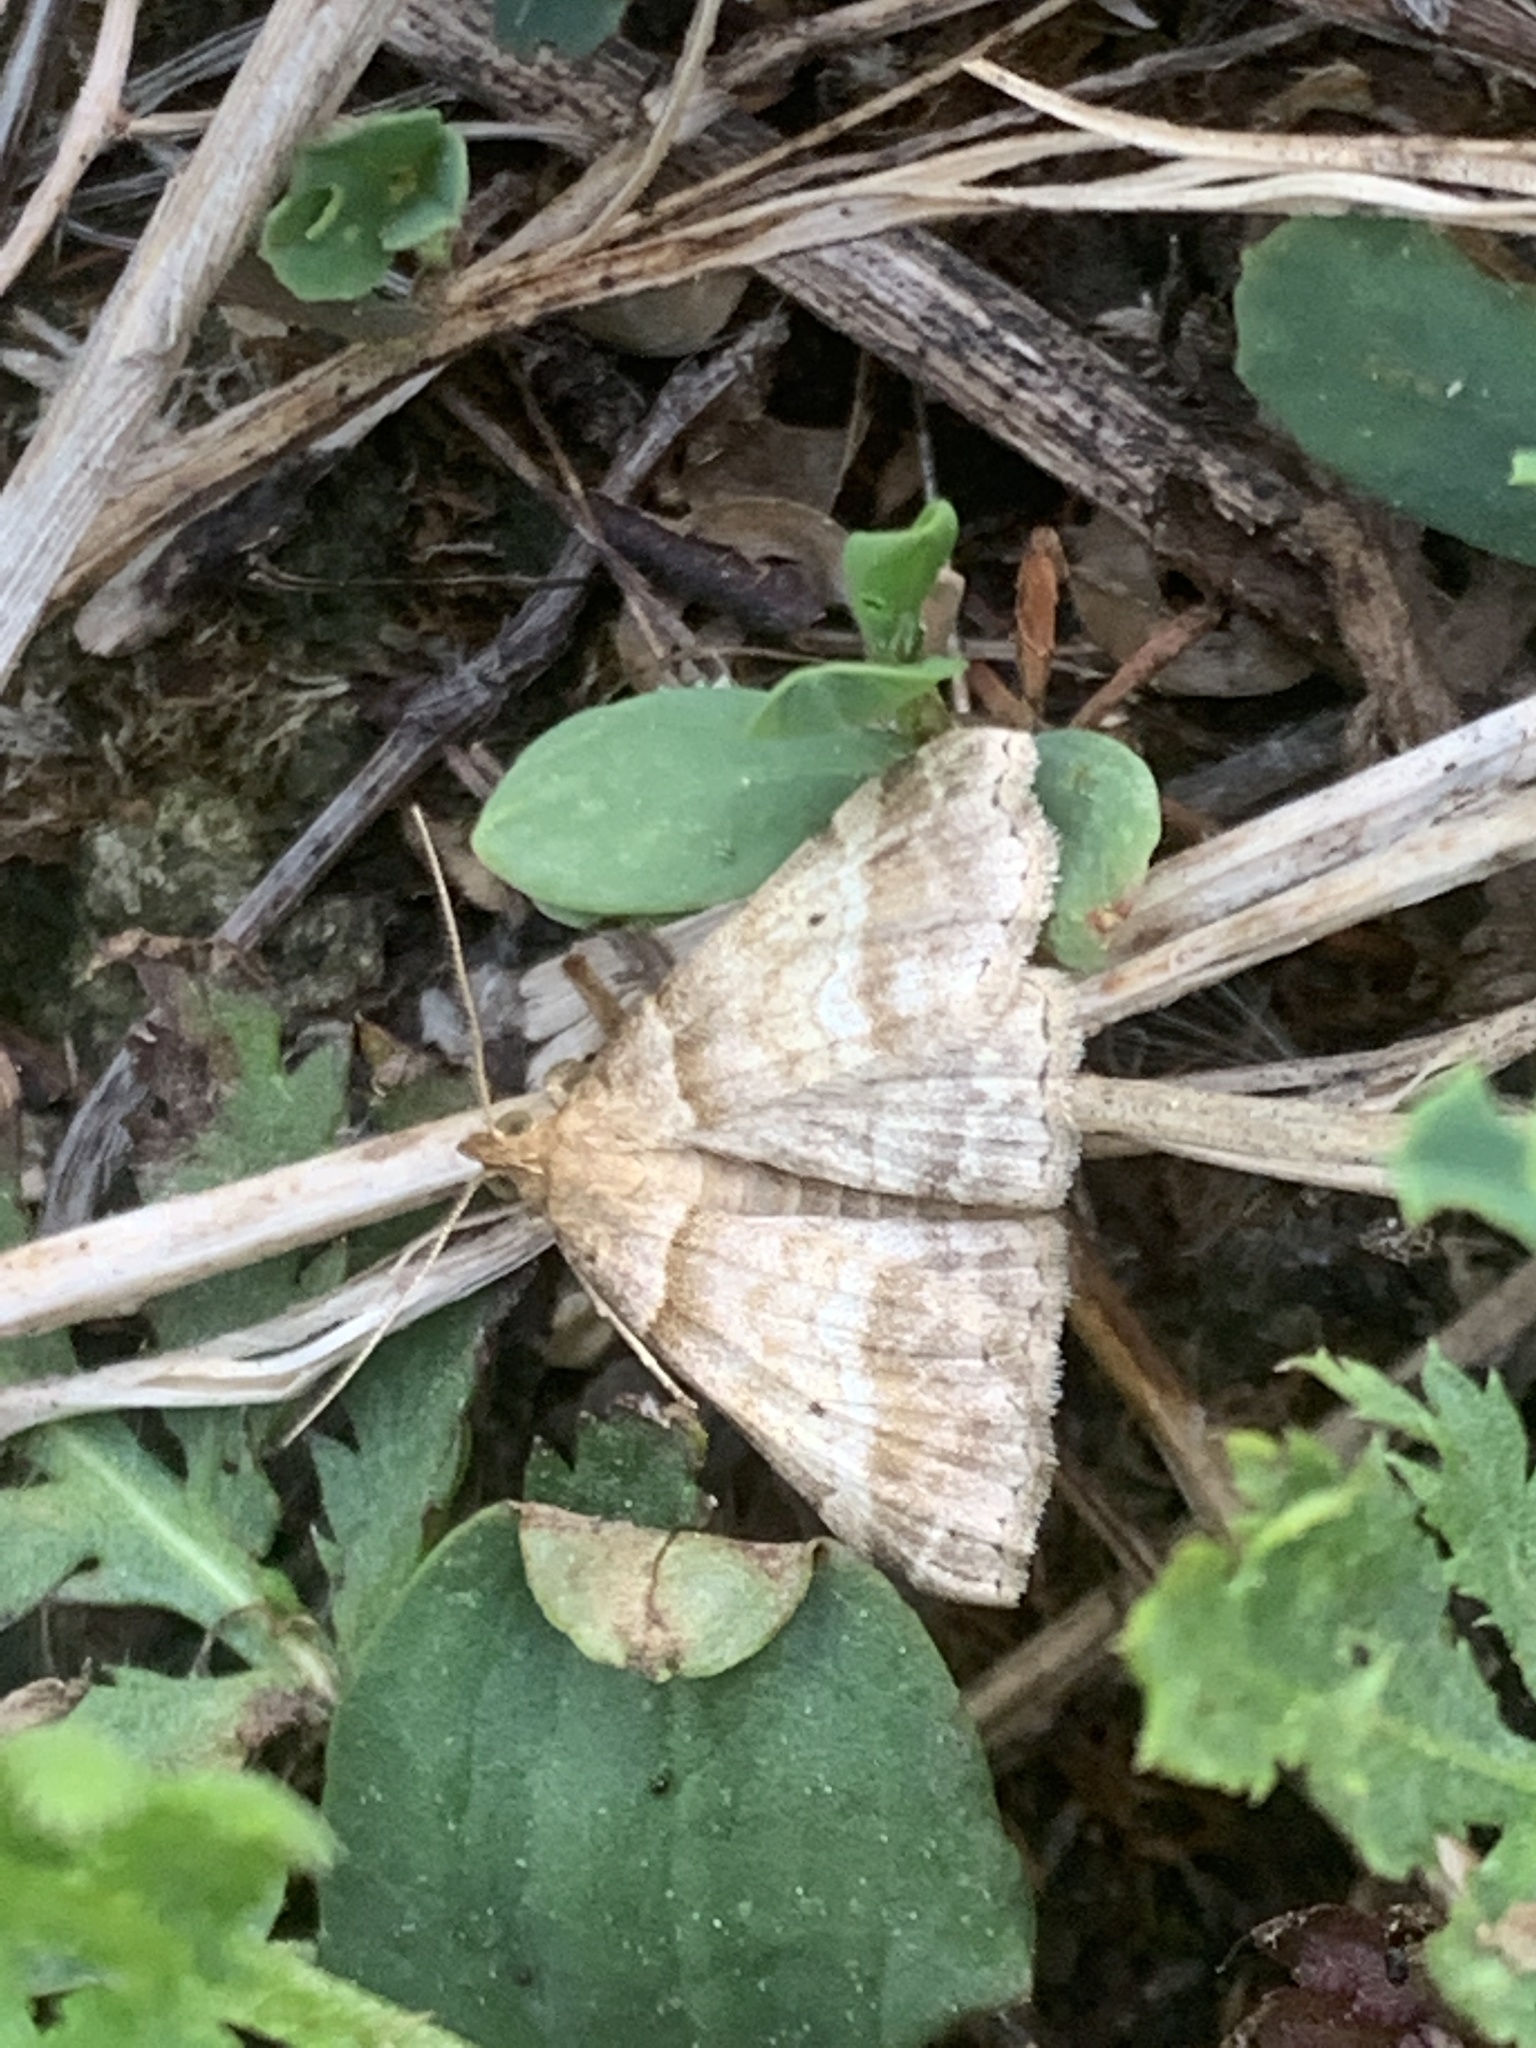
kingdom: Animalia
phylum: Arthropoda
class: Insecta
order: Lepidoptera
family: Erebidae
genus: Phaeolita
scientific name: Phaeolita pyramusalis
